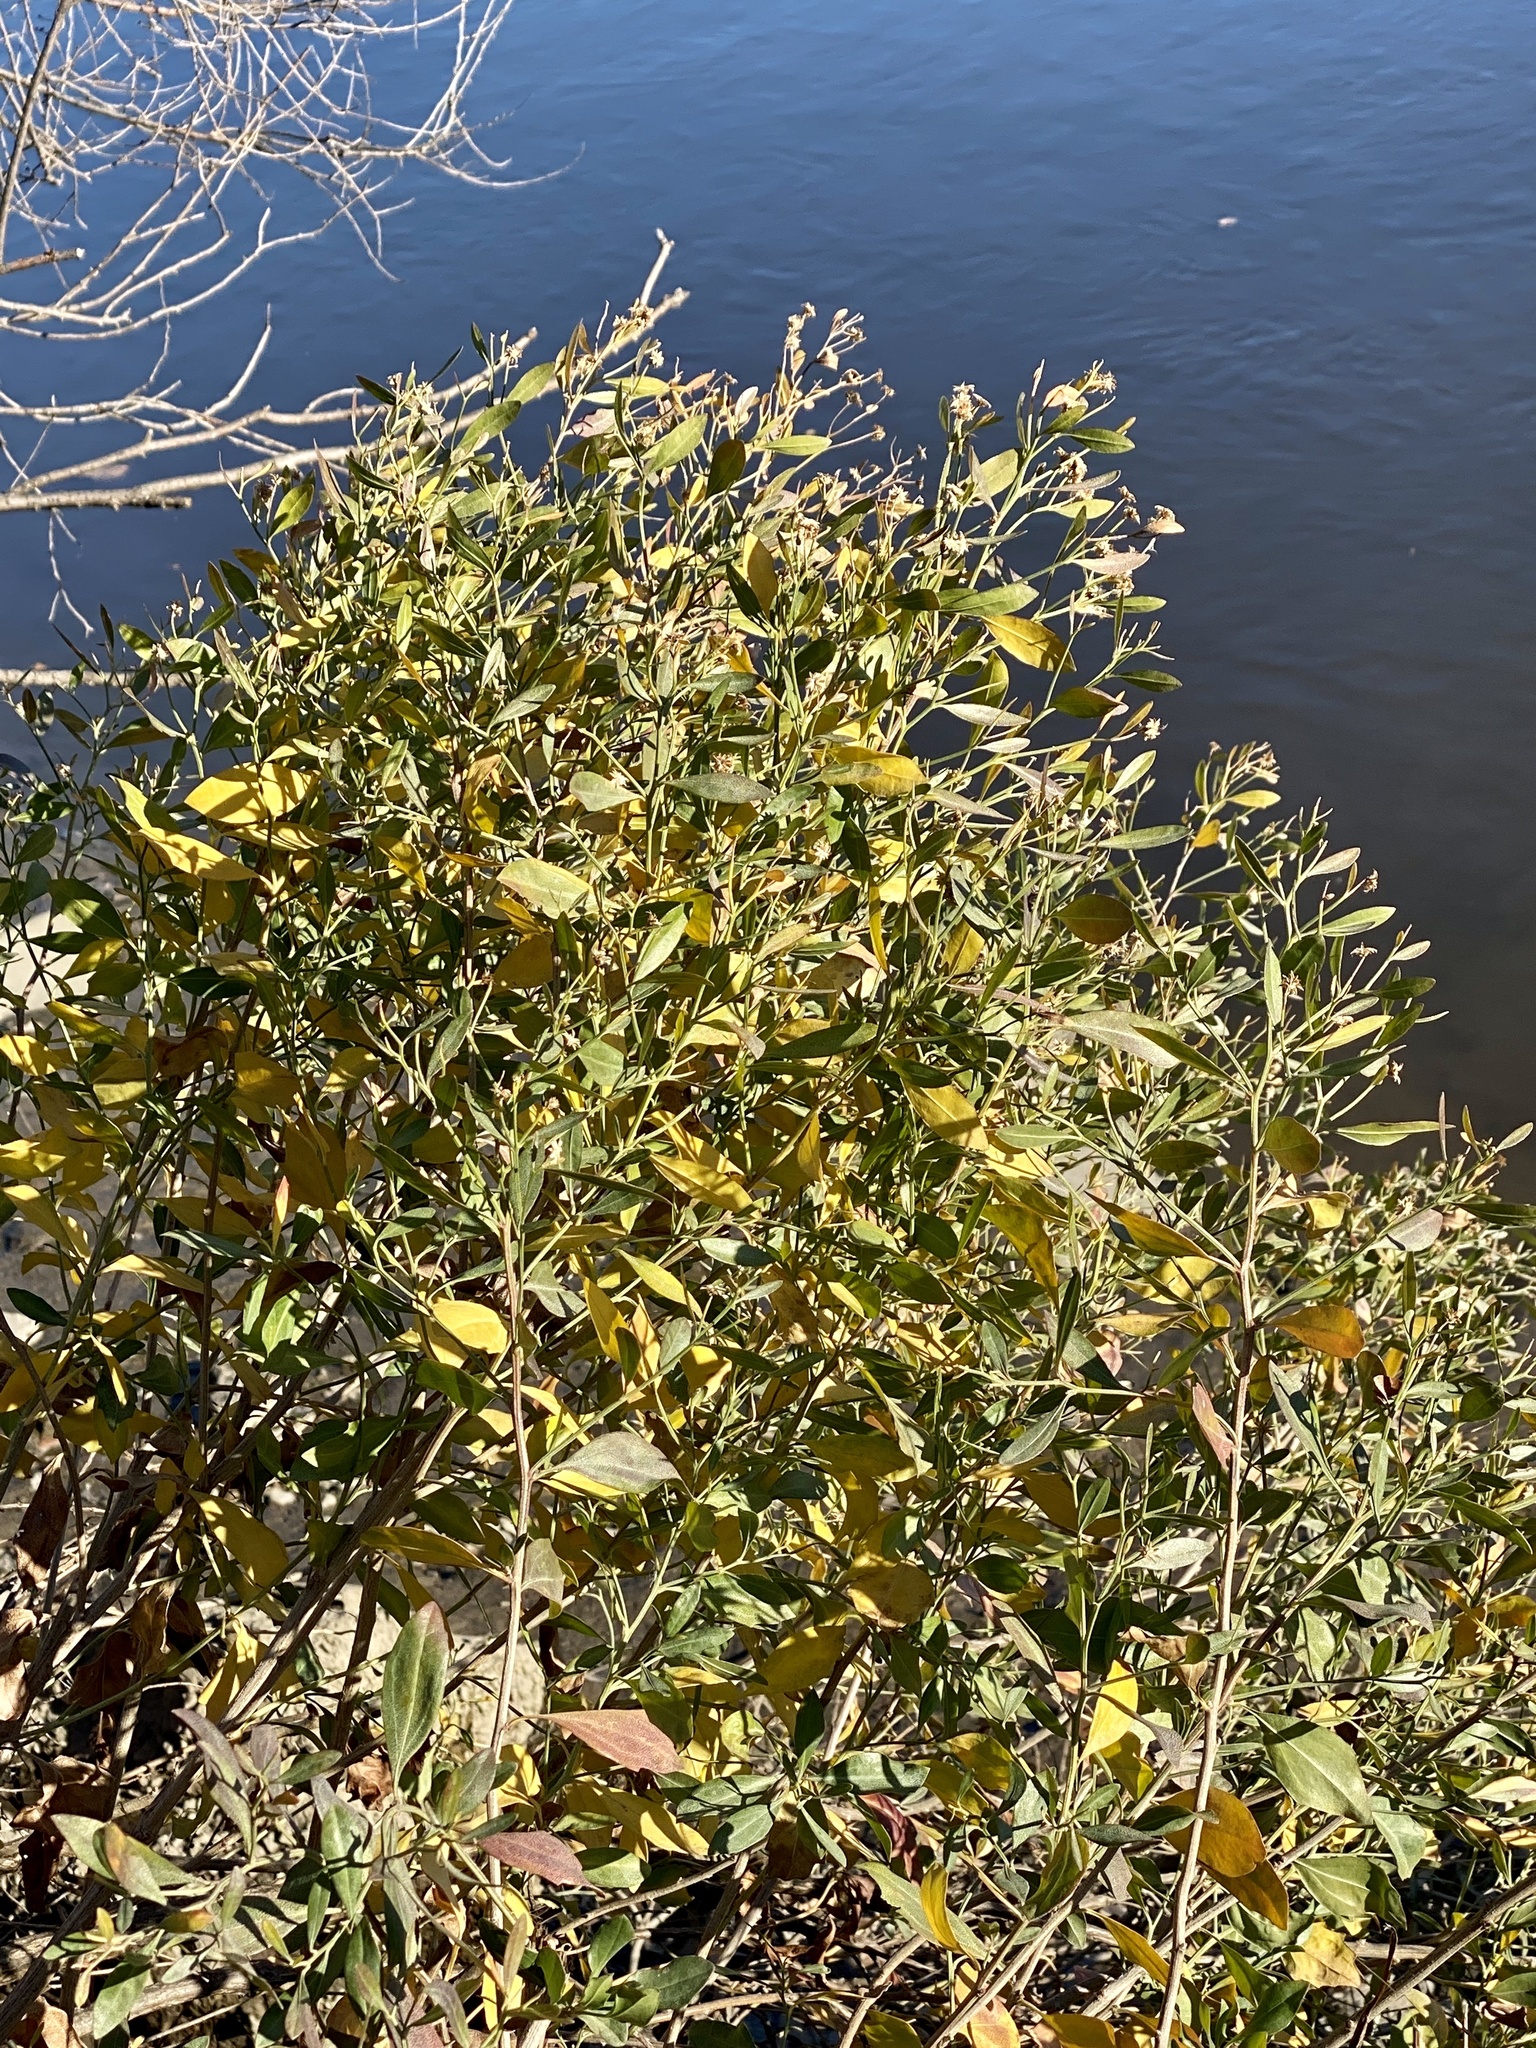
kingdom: Plantae
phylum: Tracheophyta
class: Magnoliopsida
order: Asterales
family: Asteraceae
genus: Baccharis
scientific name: Baccharis halimifolia
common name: Eastern baccharis
